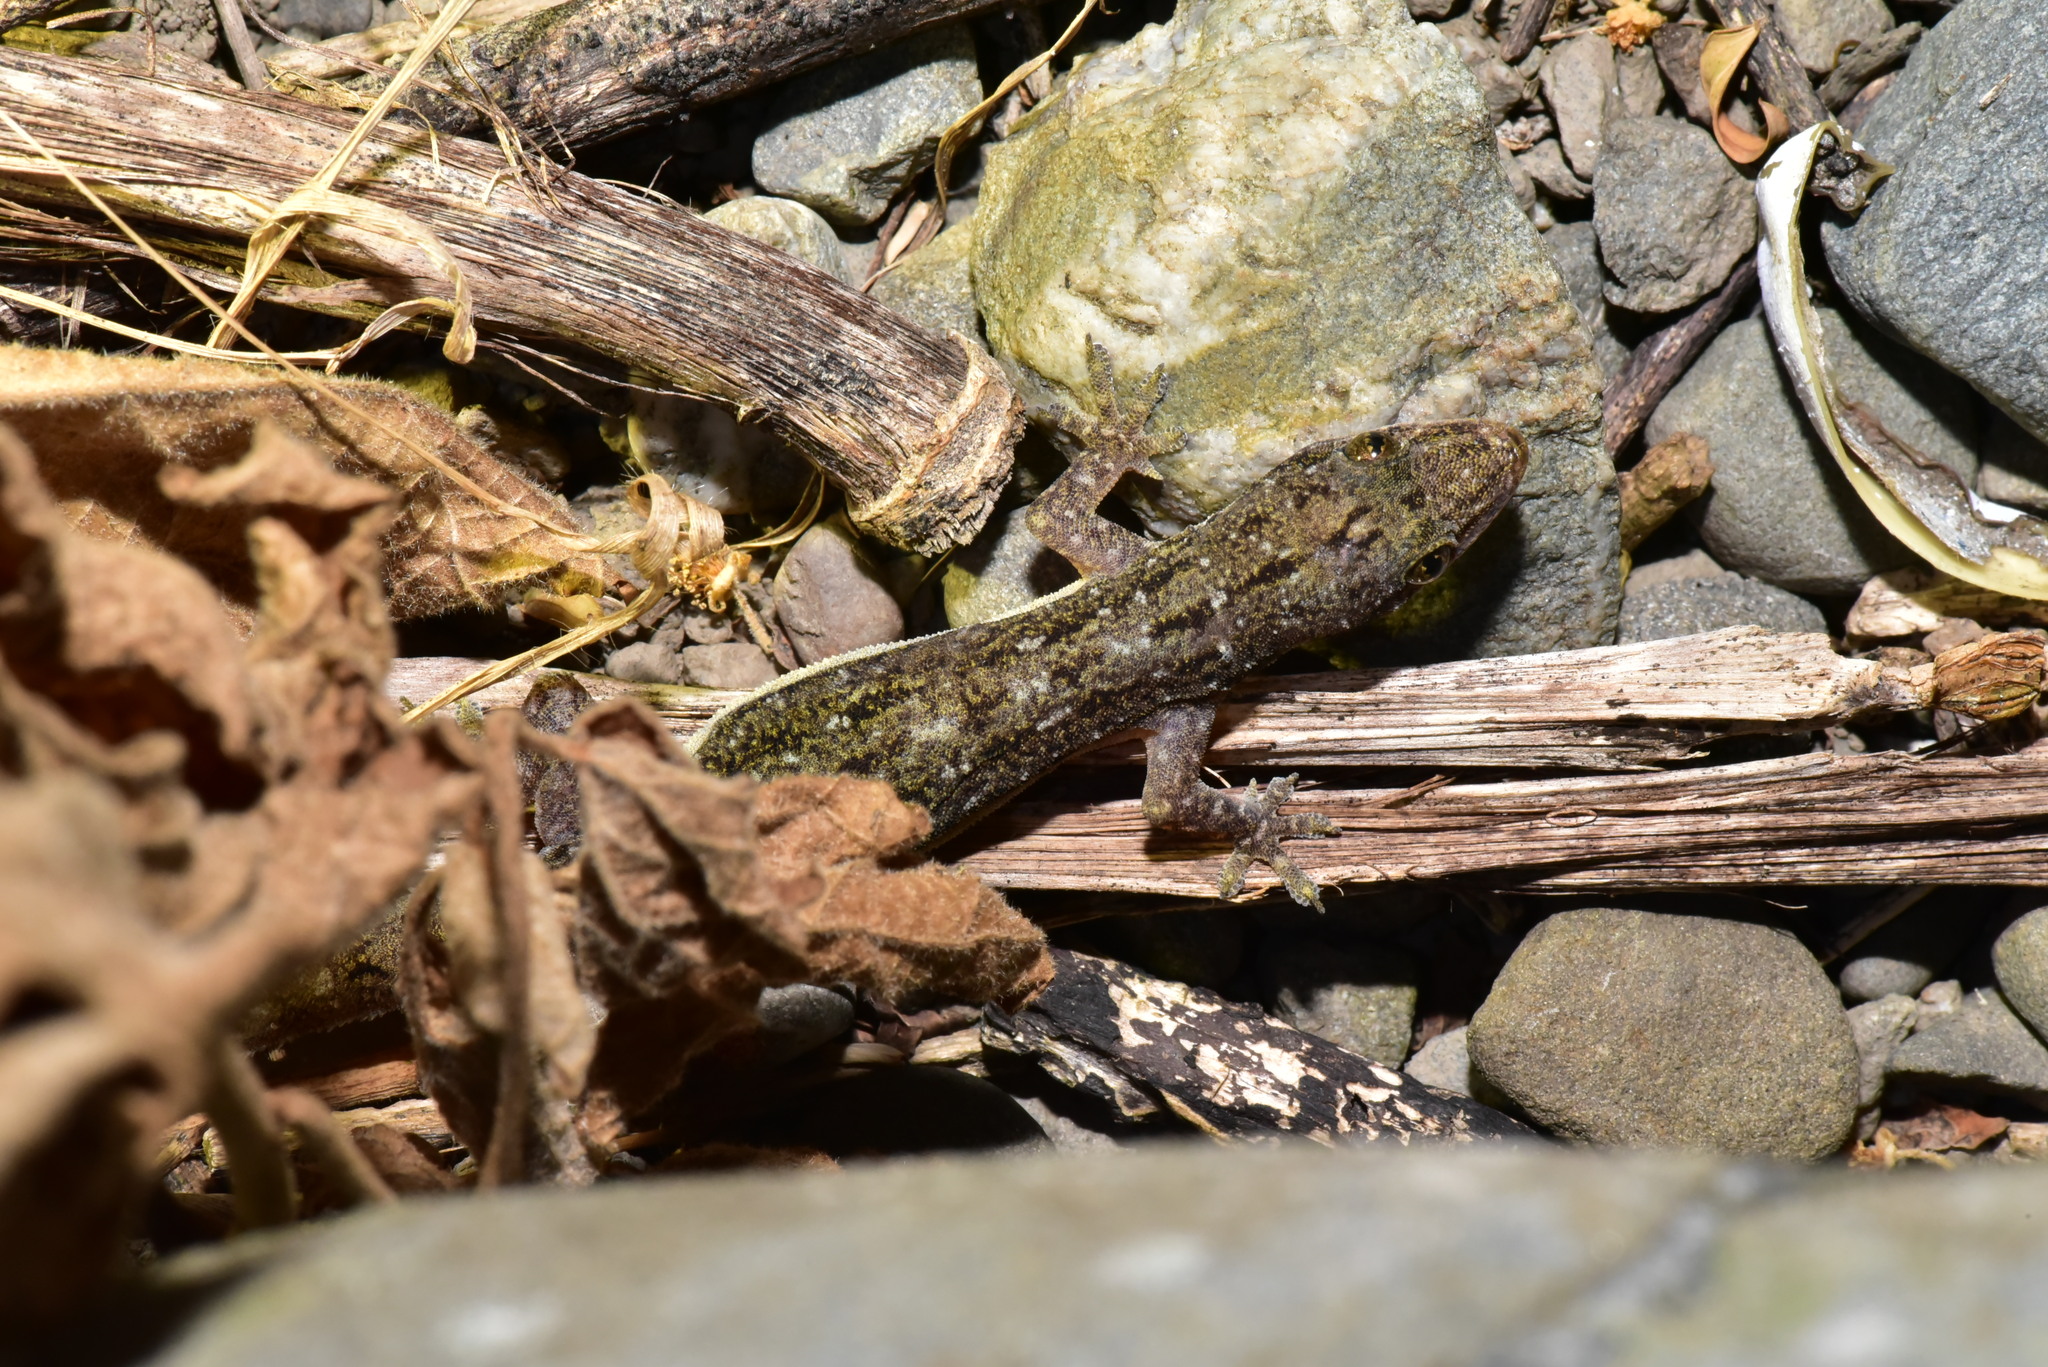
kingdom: Animalia
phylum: Chordata
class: Squamata
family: Gekkonidae
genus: Hemidactylus
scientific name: Hemidactylus stejnegeri
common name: Stejneger's leaftoed gecko
